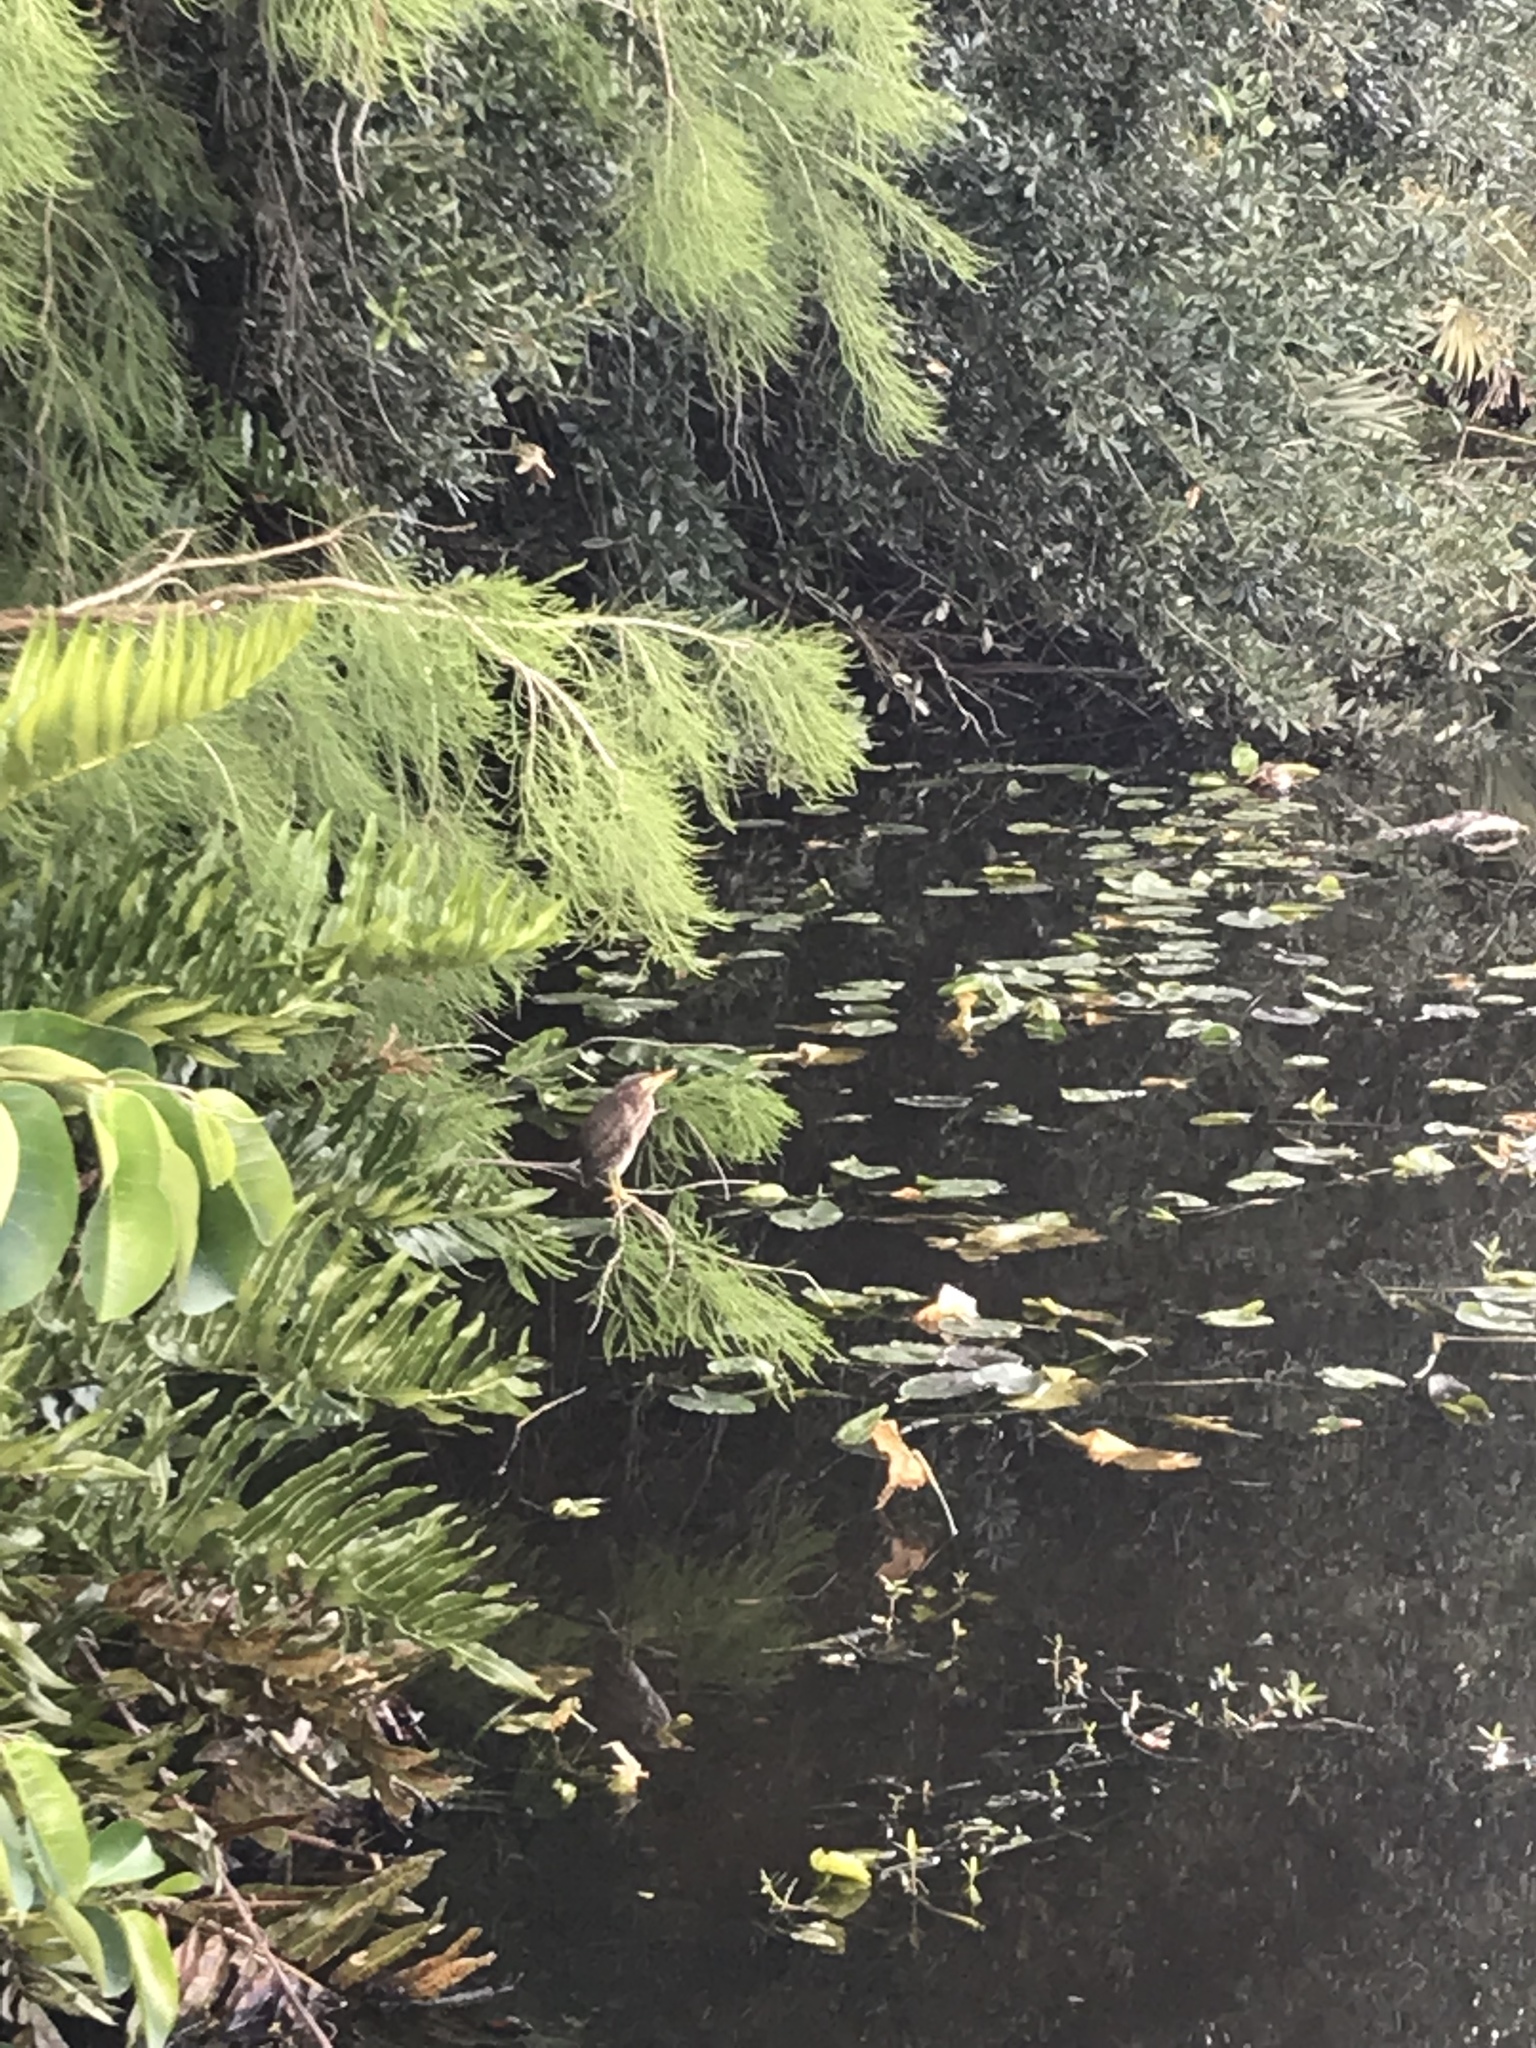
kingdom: Animalia
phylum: Chordata
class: Aves
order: Pelecaniformes
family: Ardeidae
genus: Butorides
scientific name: Butorides virescens
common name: Green heron
